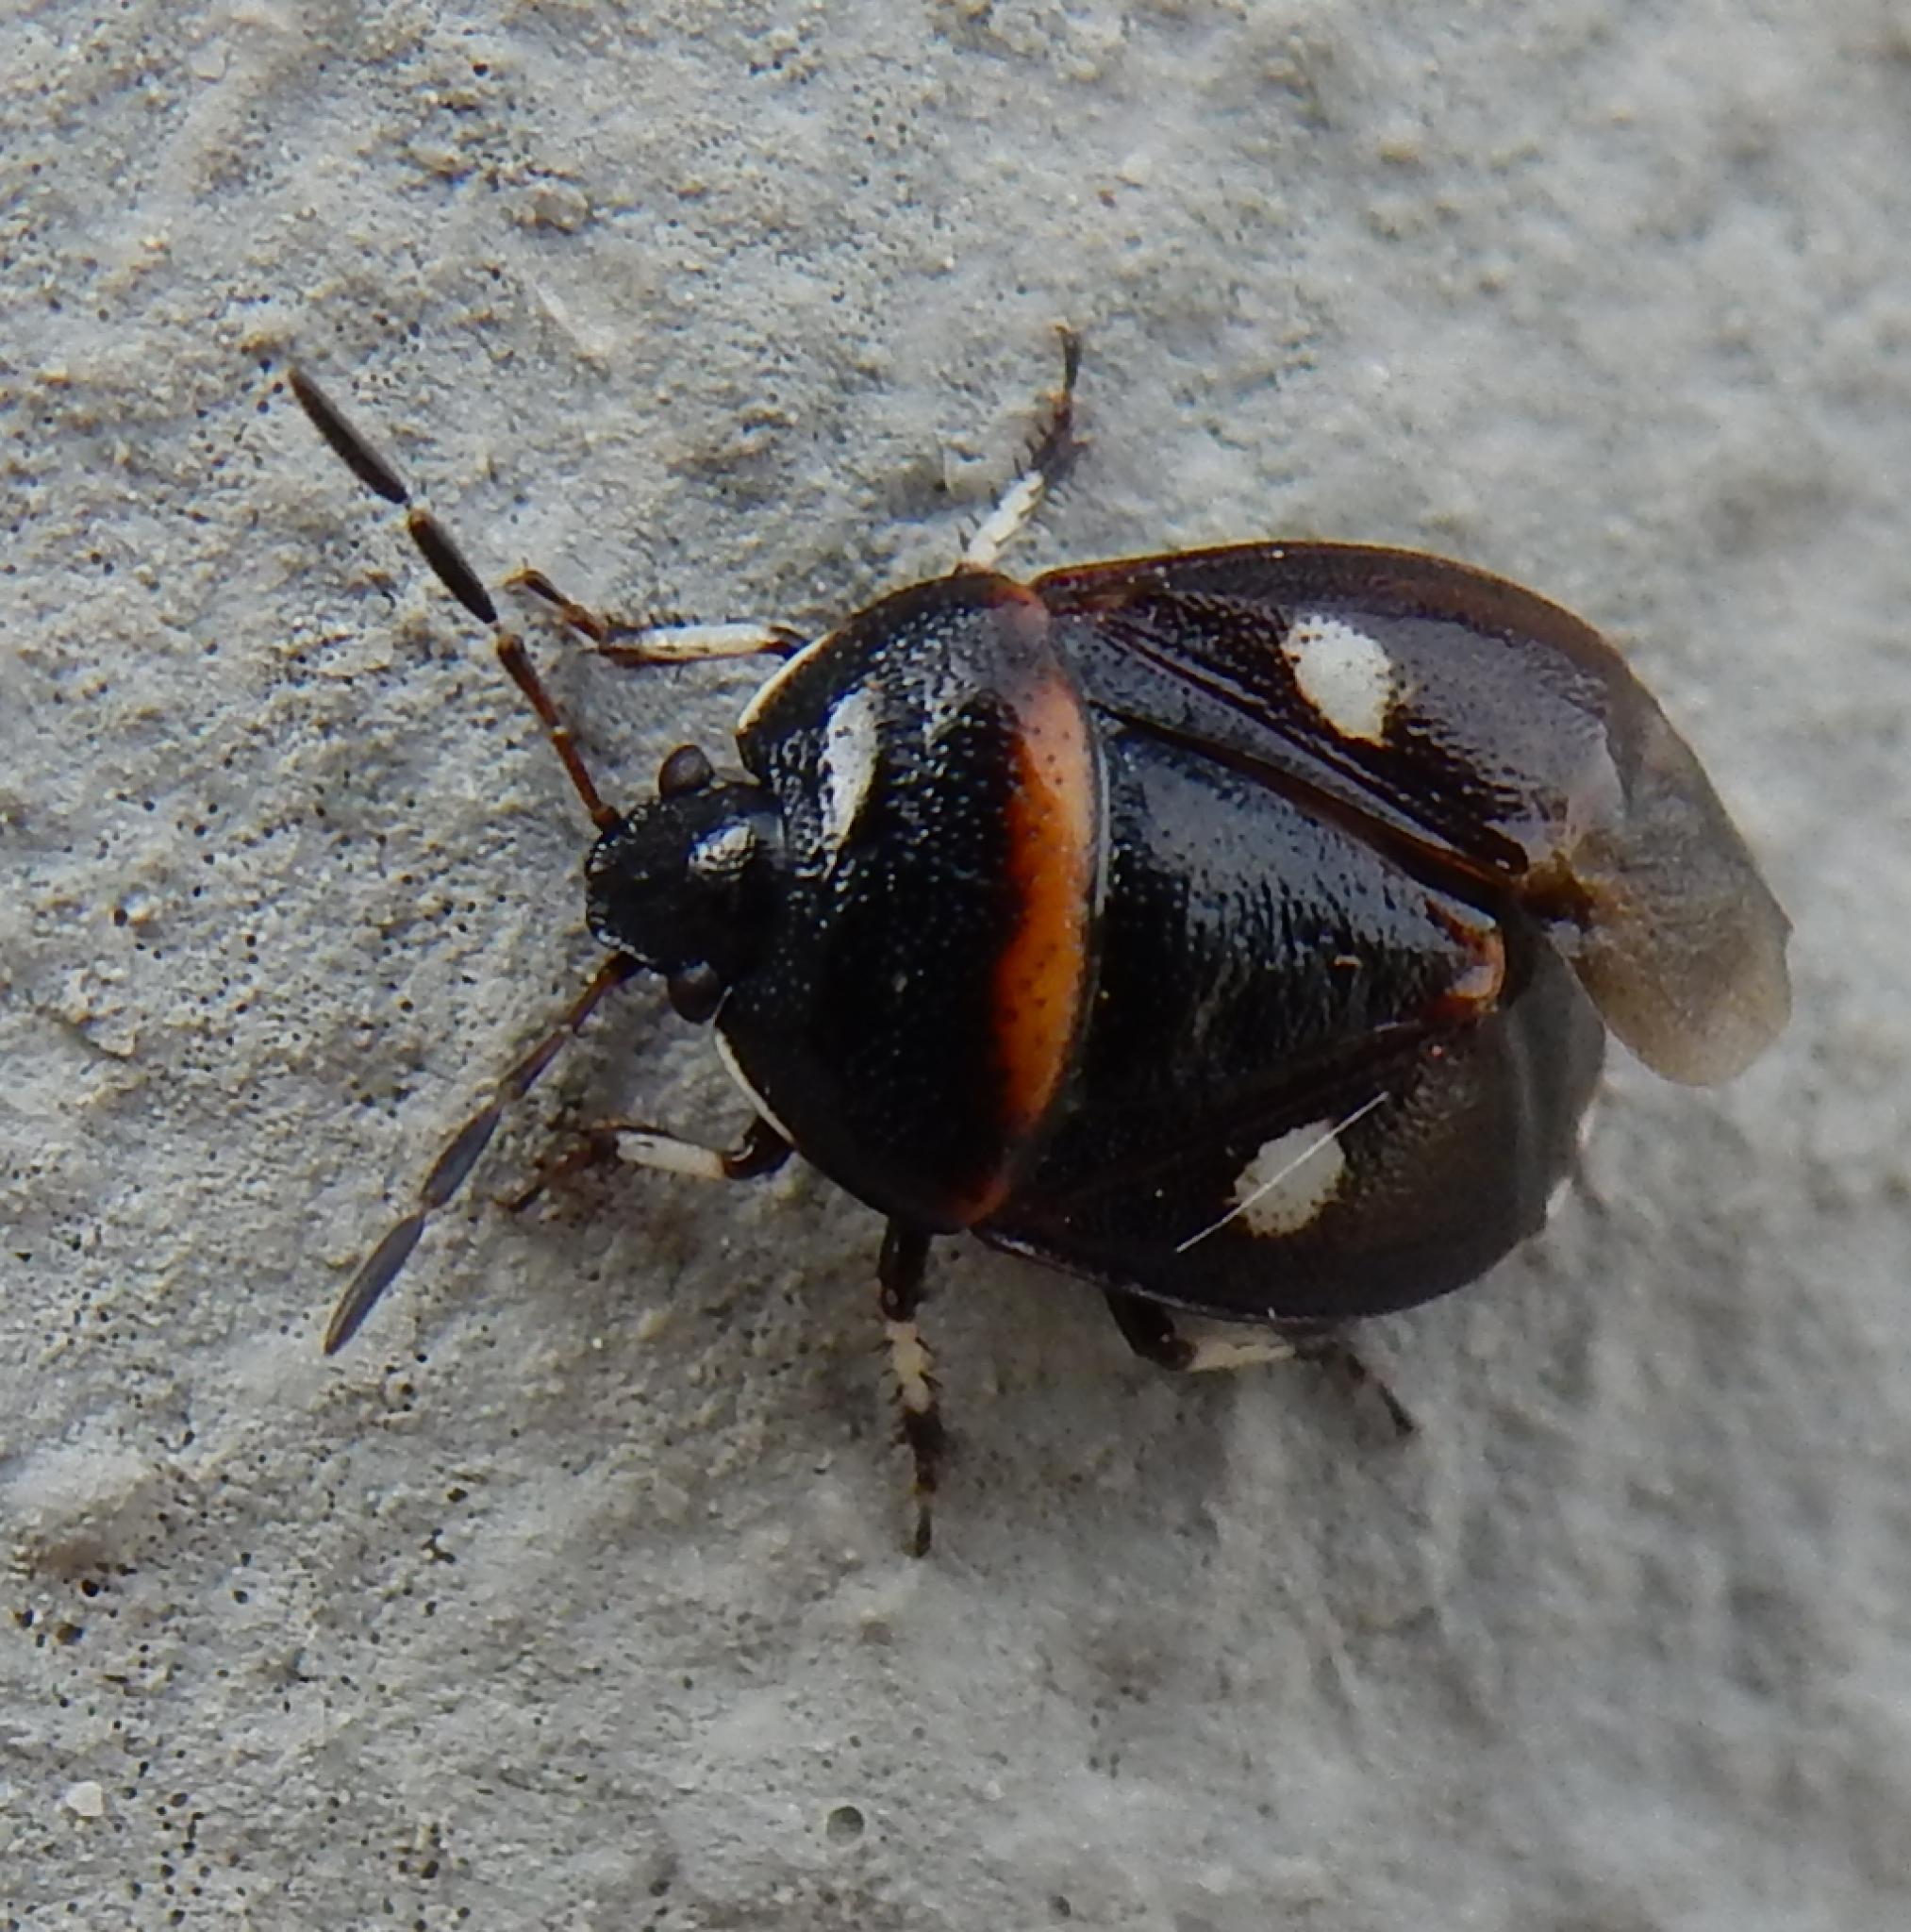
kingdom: Animalia
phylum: Arthropoda
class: Insecta
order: Hemiptera
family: Cydnidae
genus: Lalervis
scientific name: Lalervis
